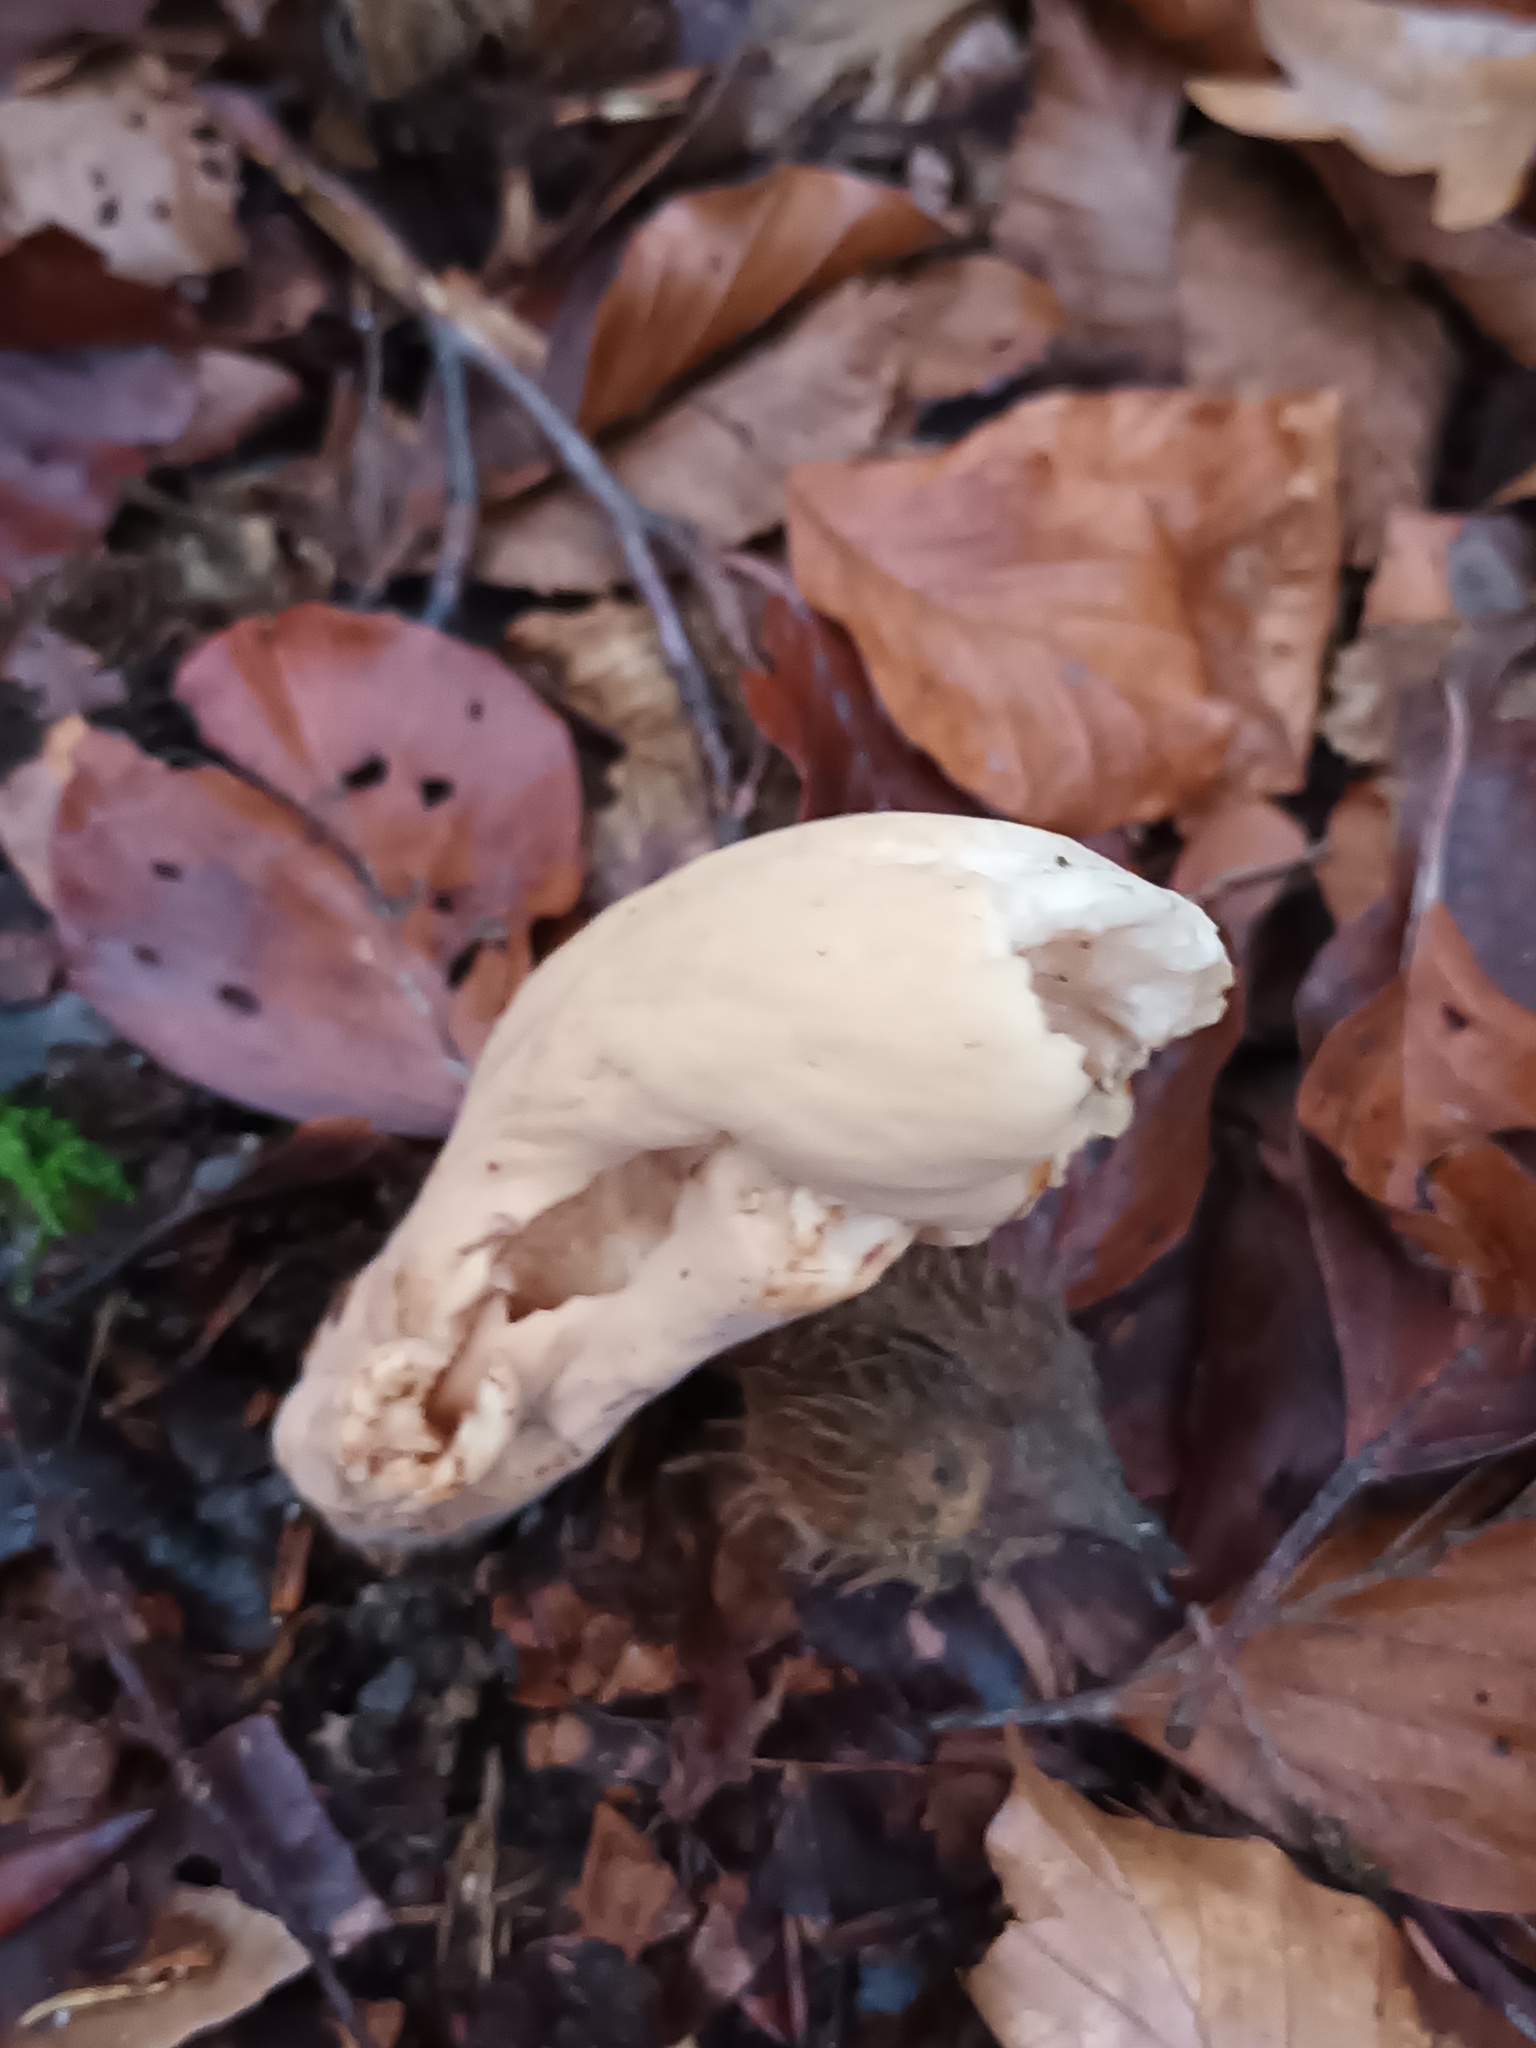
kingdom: Fungi
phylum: Basidiomycota
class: Agaricomycetes
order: Gomphales
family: Clavariadelphaceae
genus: Clavariadelphus
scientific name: Clavariadelphus pistillaris
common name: Giant club
